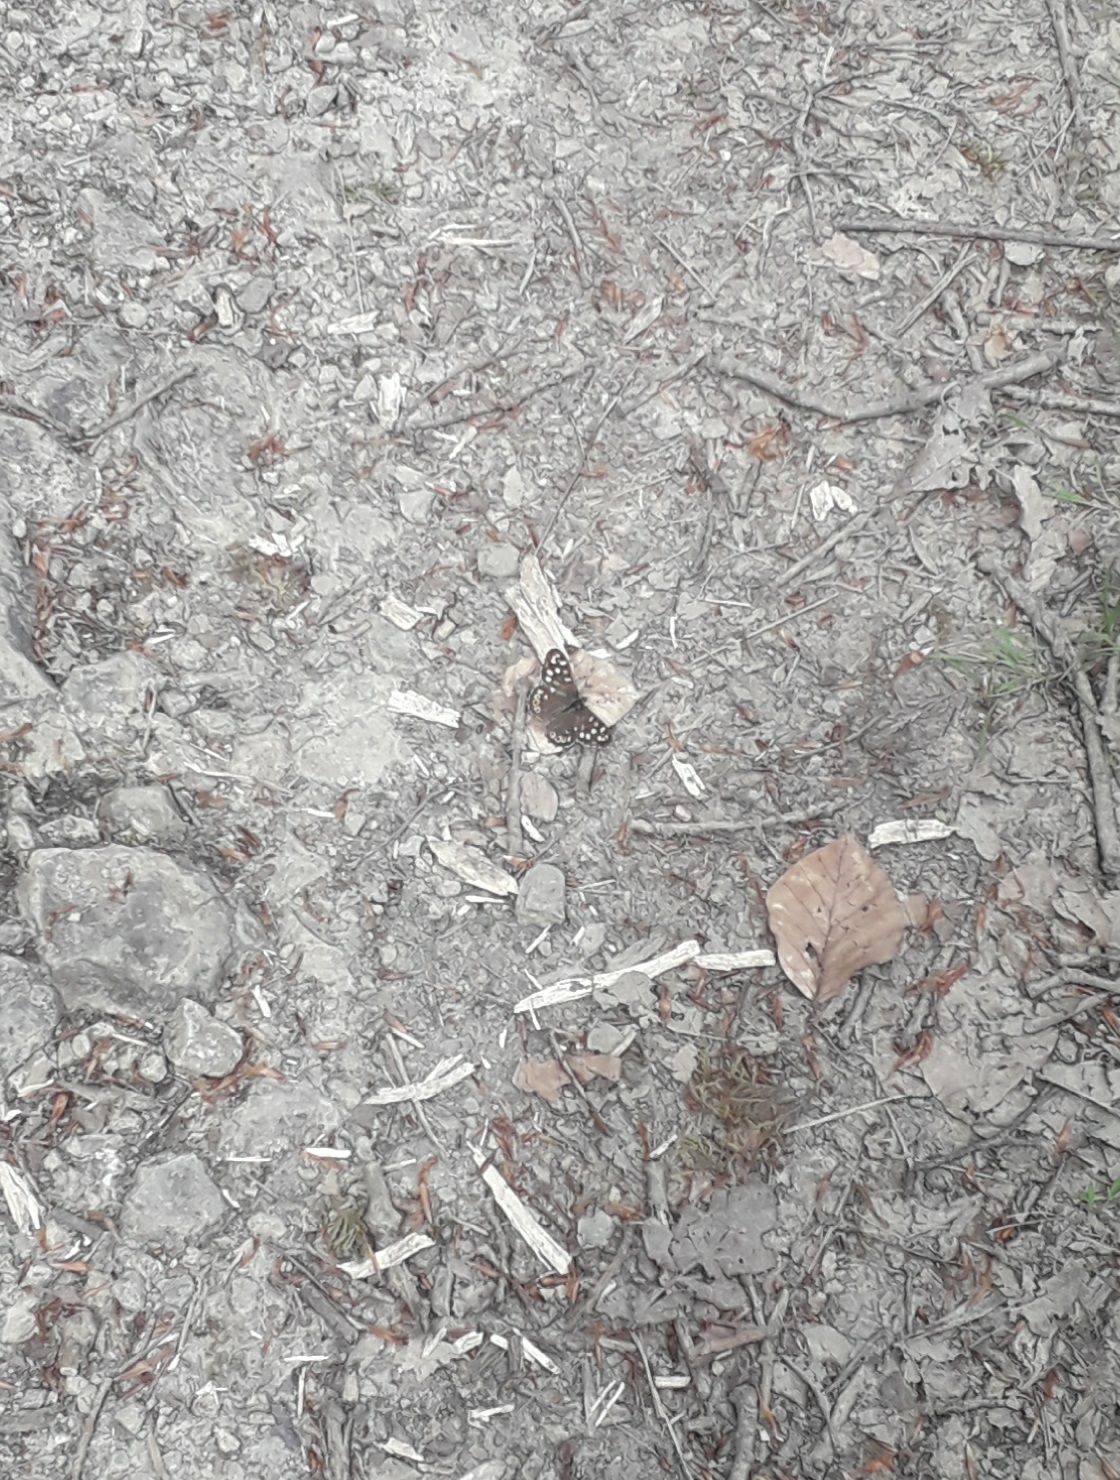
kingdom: Animalia
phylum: Arthropoda
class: Insecta
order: Lepidoptera
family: Nymphalidae
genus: Pararge
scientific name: Pararge aegeria
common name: Speckled wood
